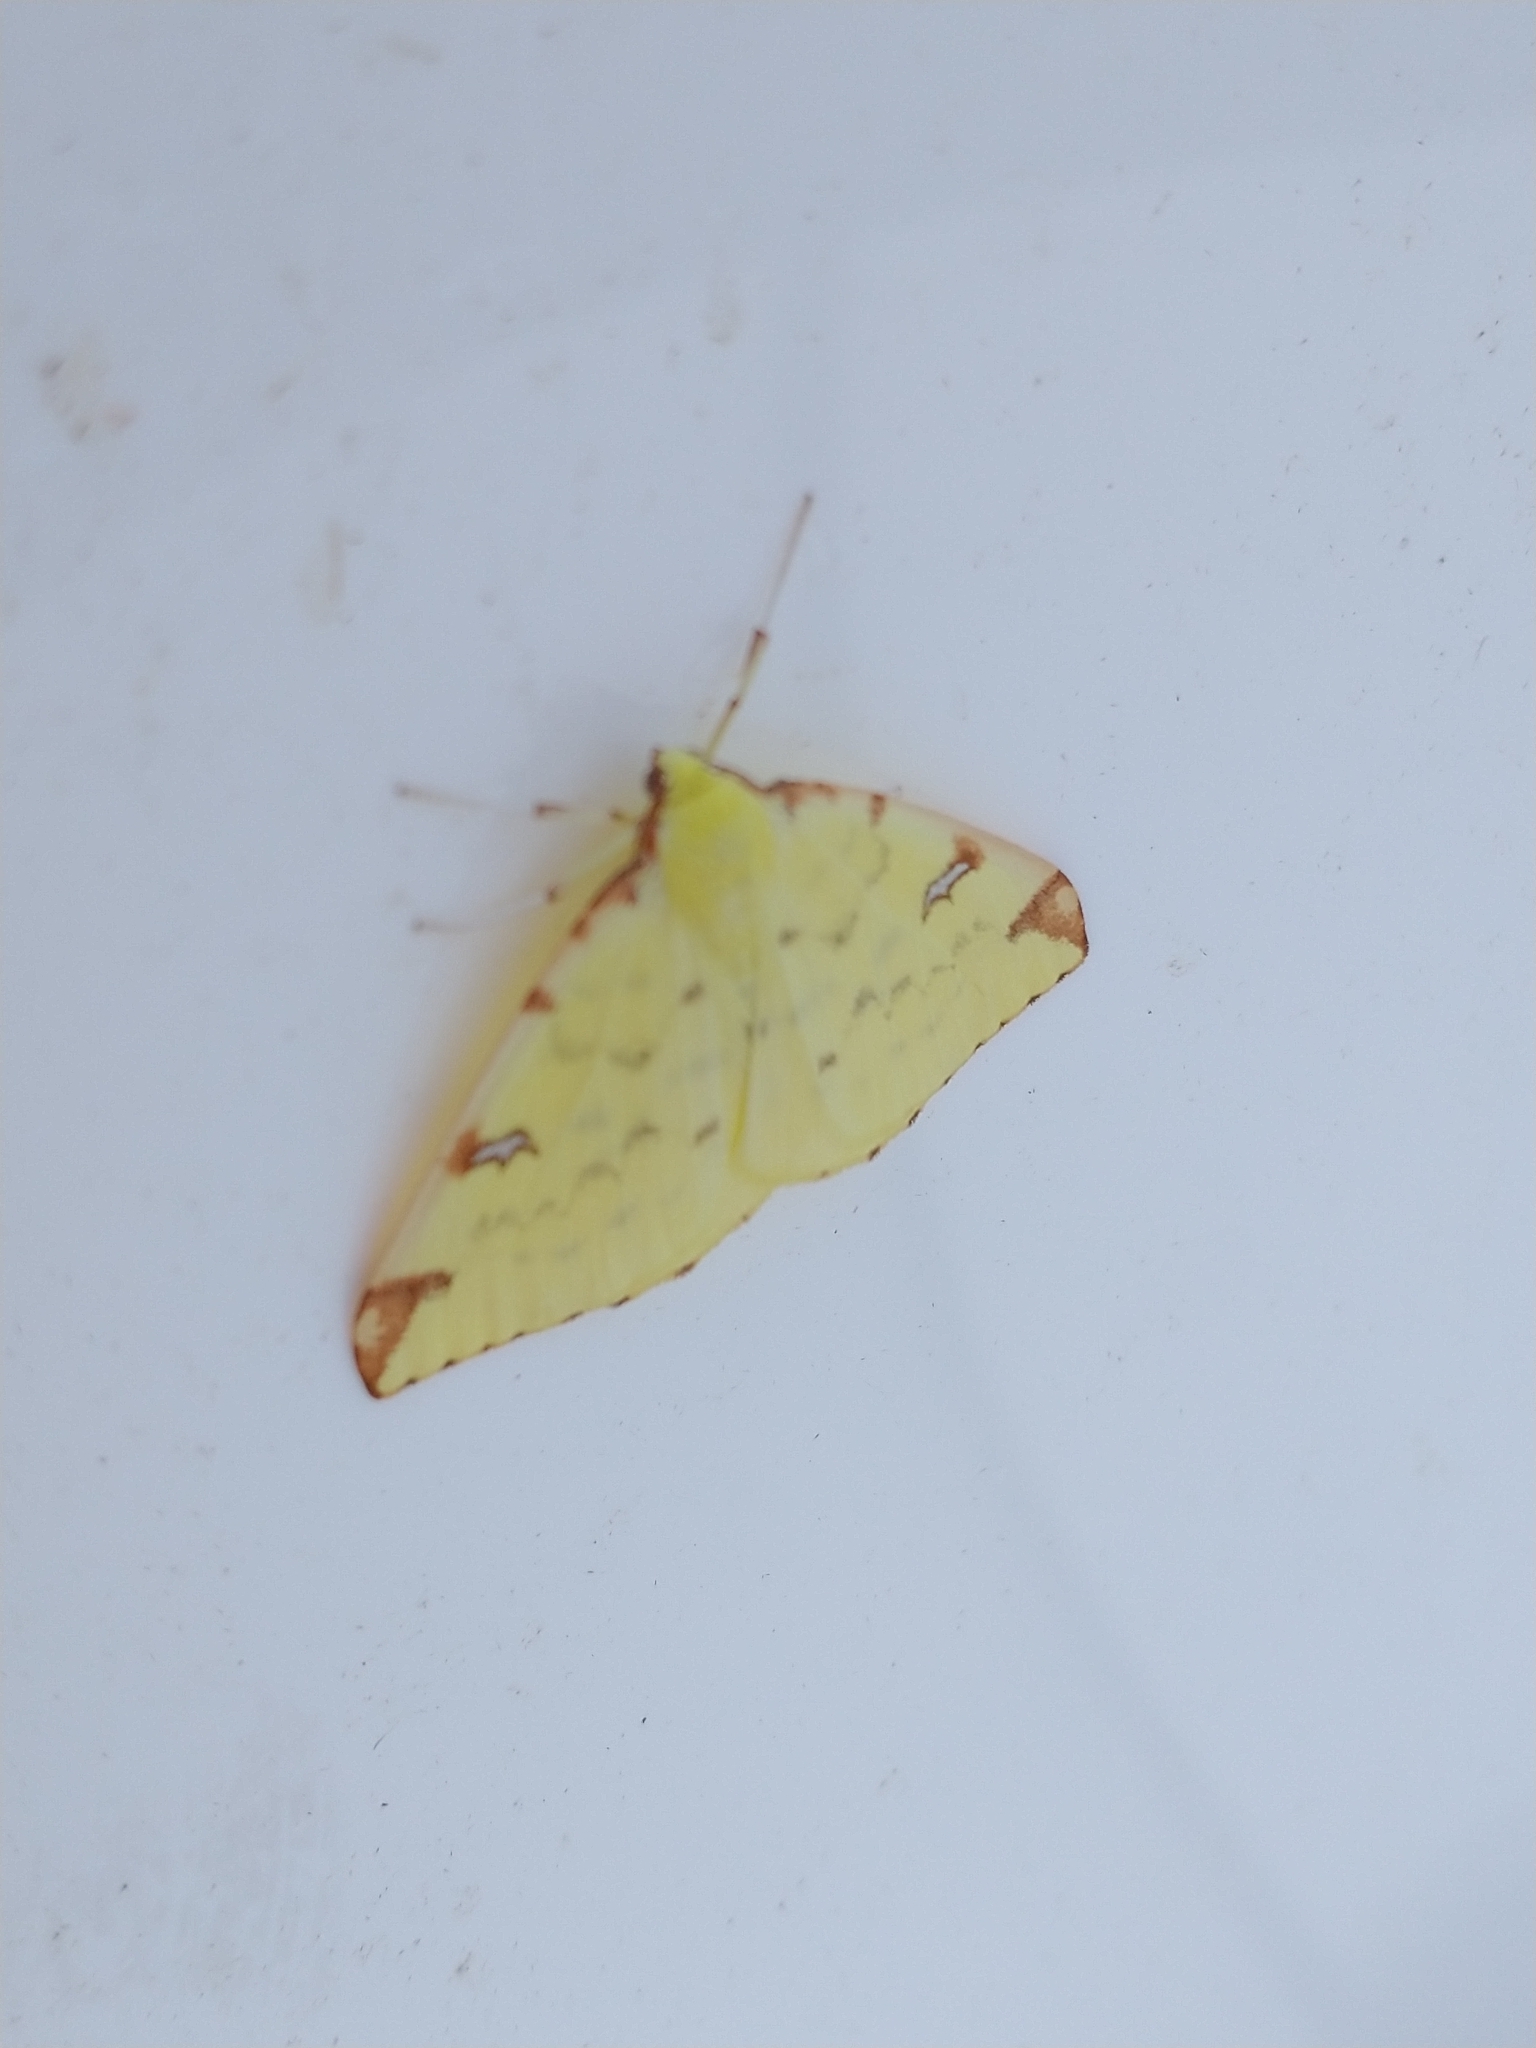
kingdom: Animalia
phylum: Arthropoda
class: Insecta
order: Lepidoptera
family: Geometridae
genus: Opisthograptis
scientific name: Opisthograptis luteolata
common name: Brimstone moth
